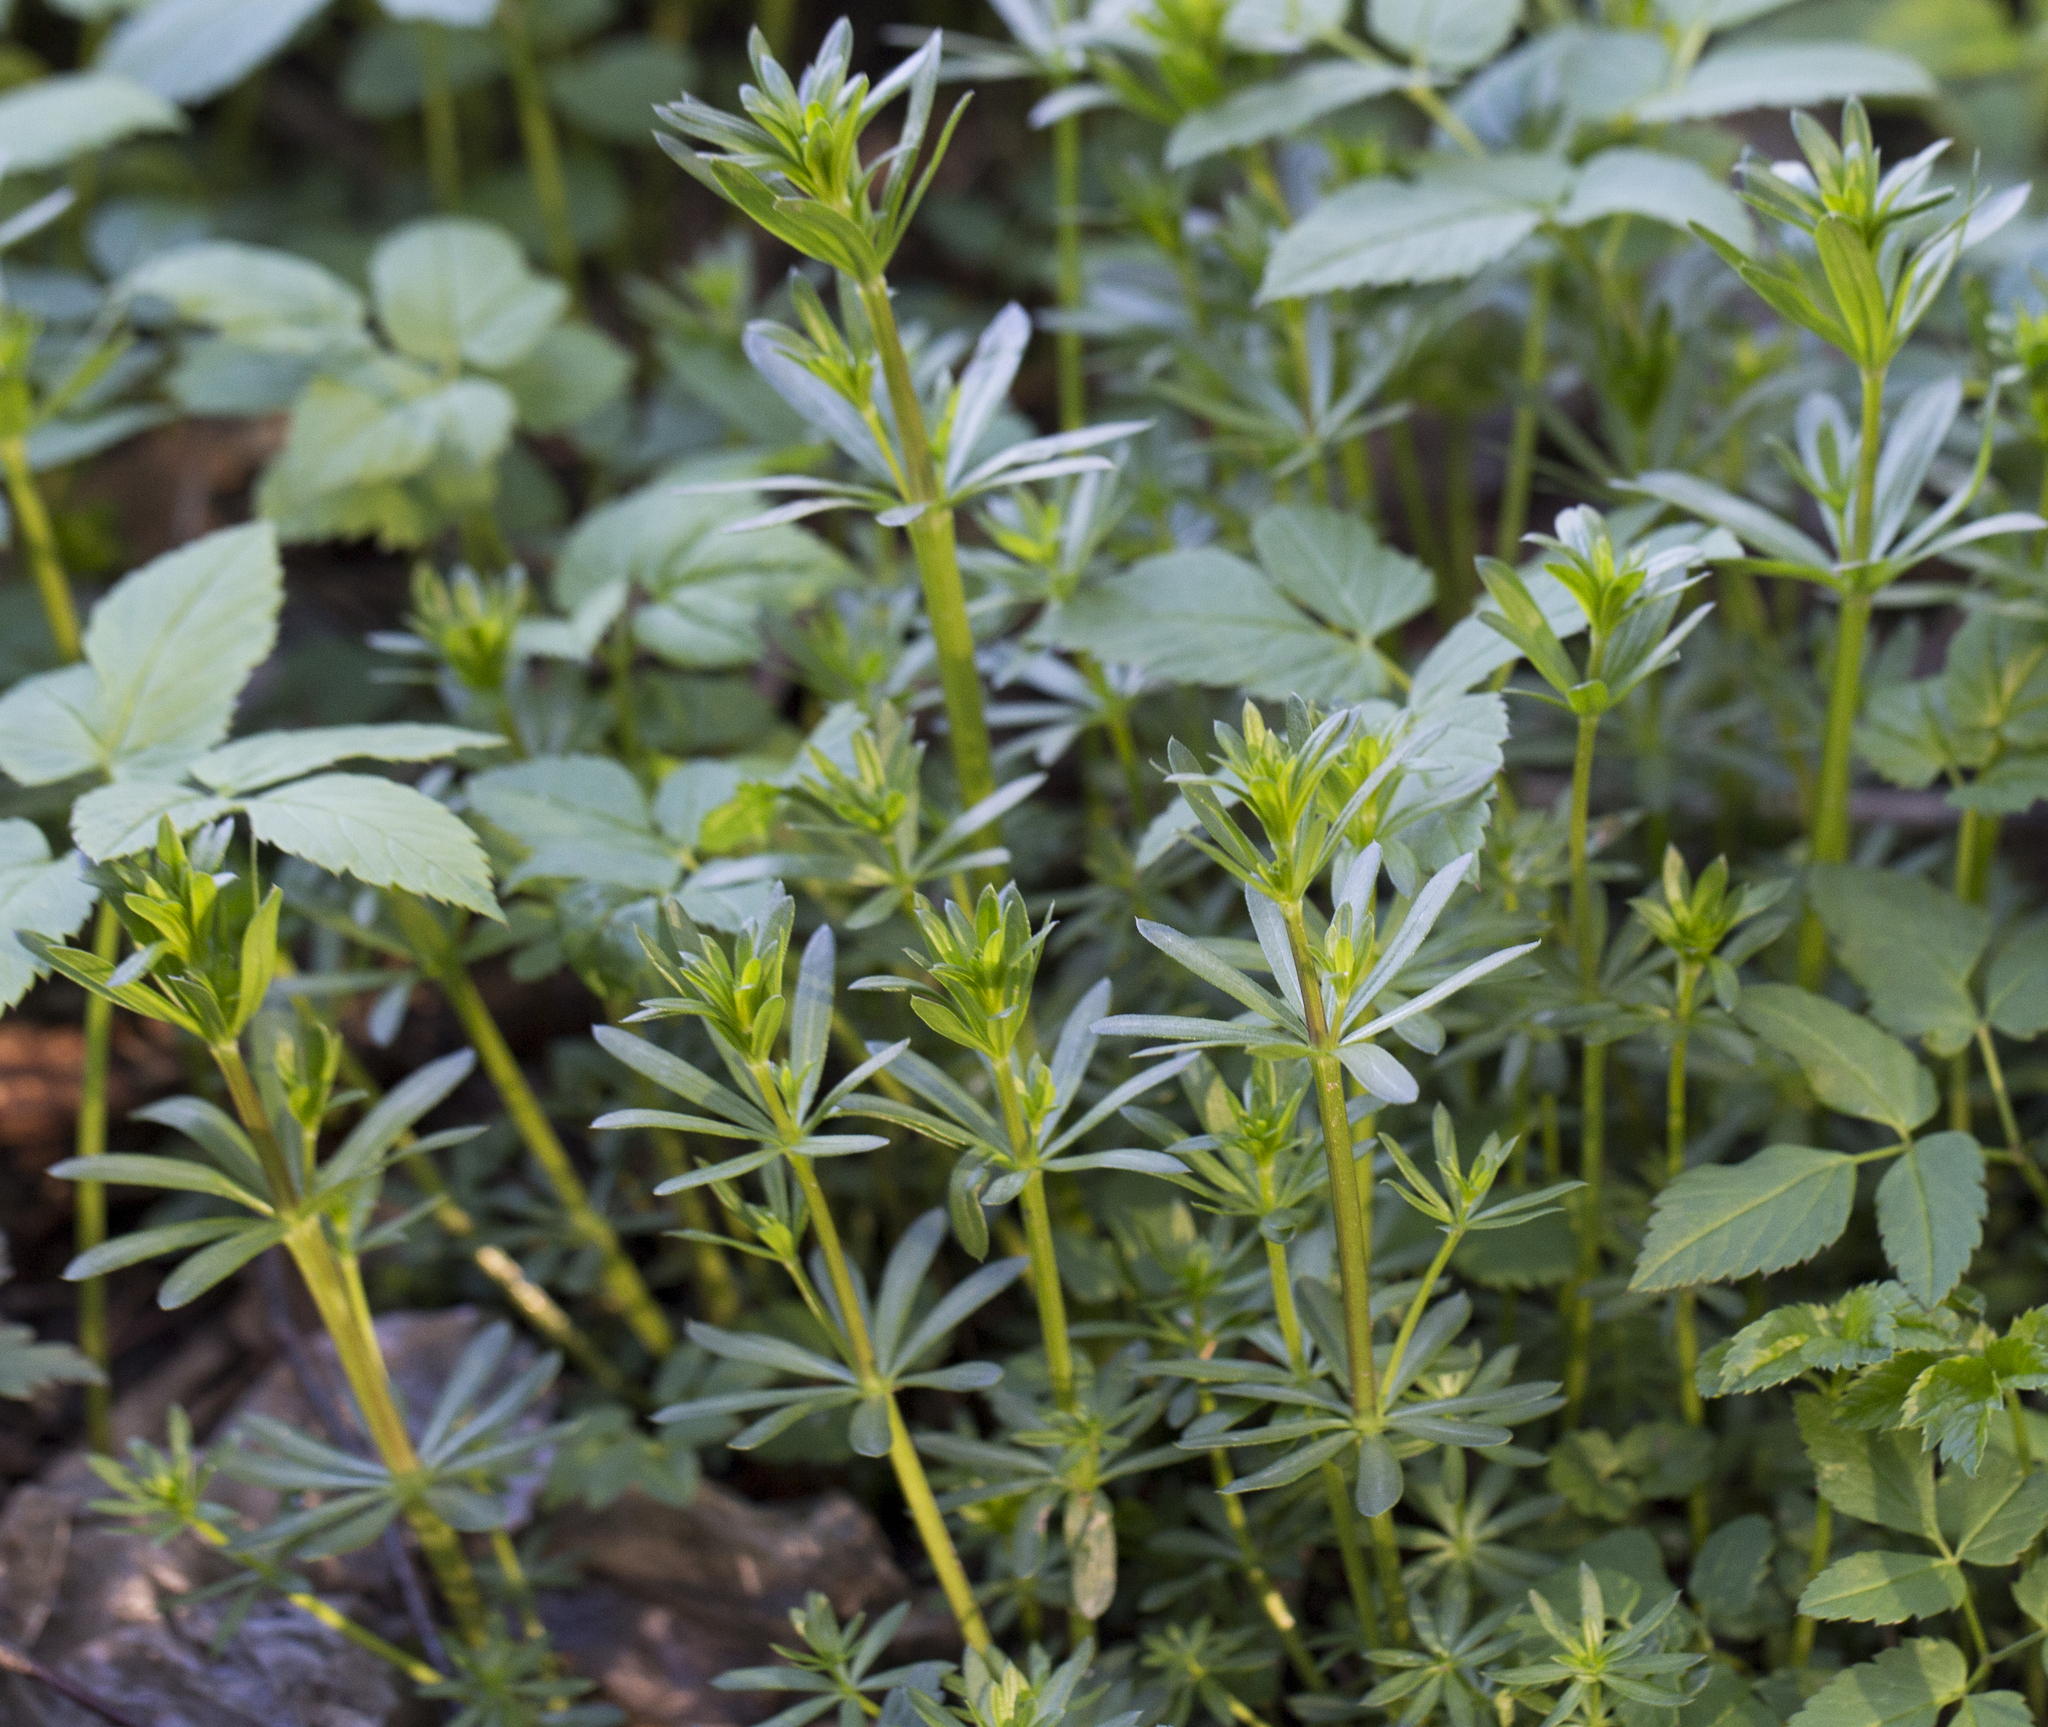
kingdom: Plantae
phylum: Tracheophyta
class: Magnoliopsida
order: Gentianales
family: Rubiaceae
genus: Galium
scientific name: Galium mollugo
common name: Hedge bedstraw
